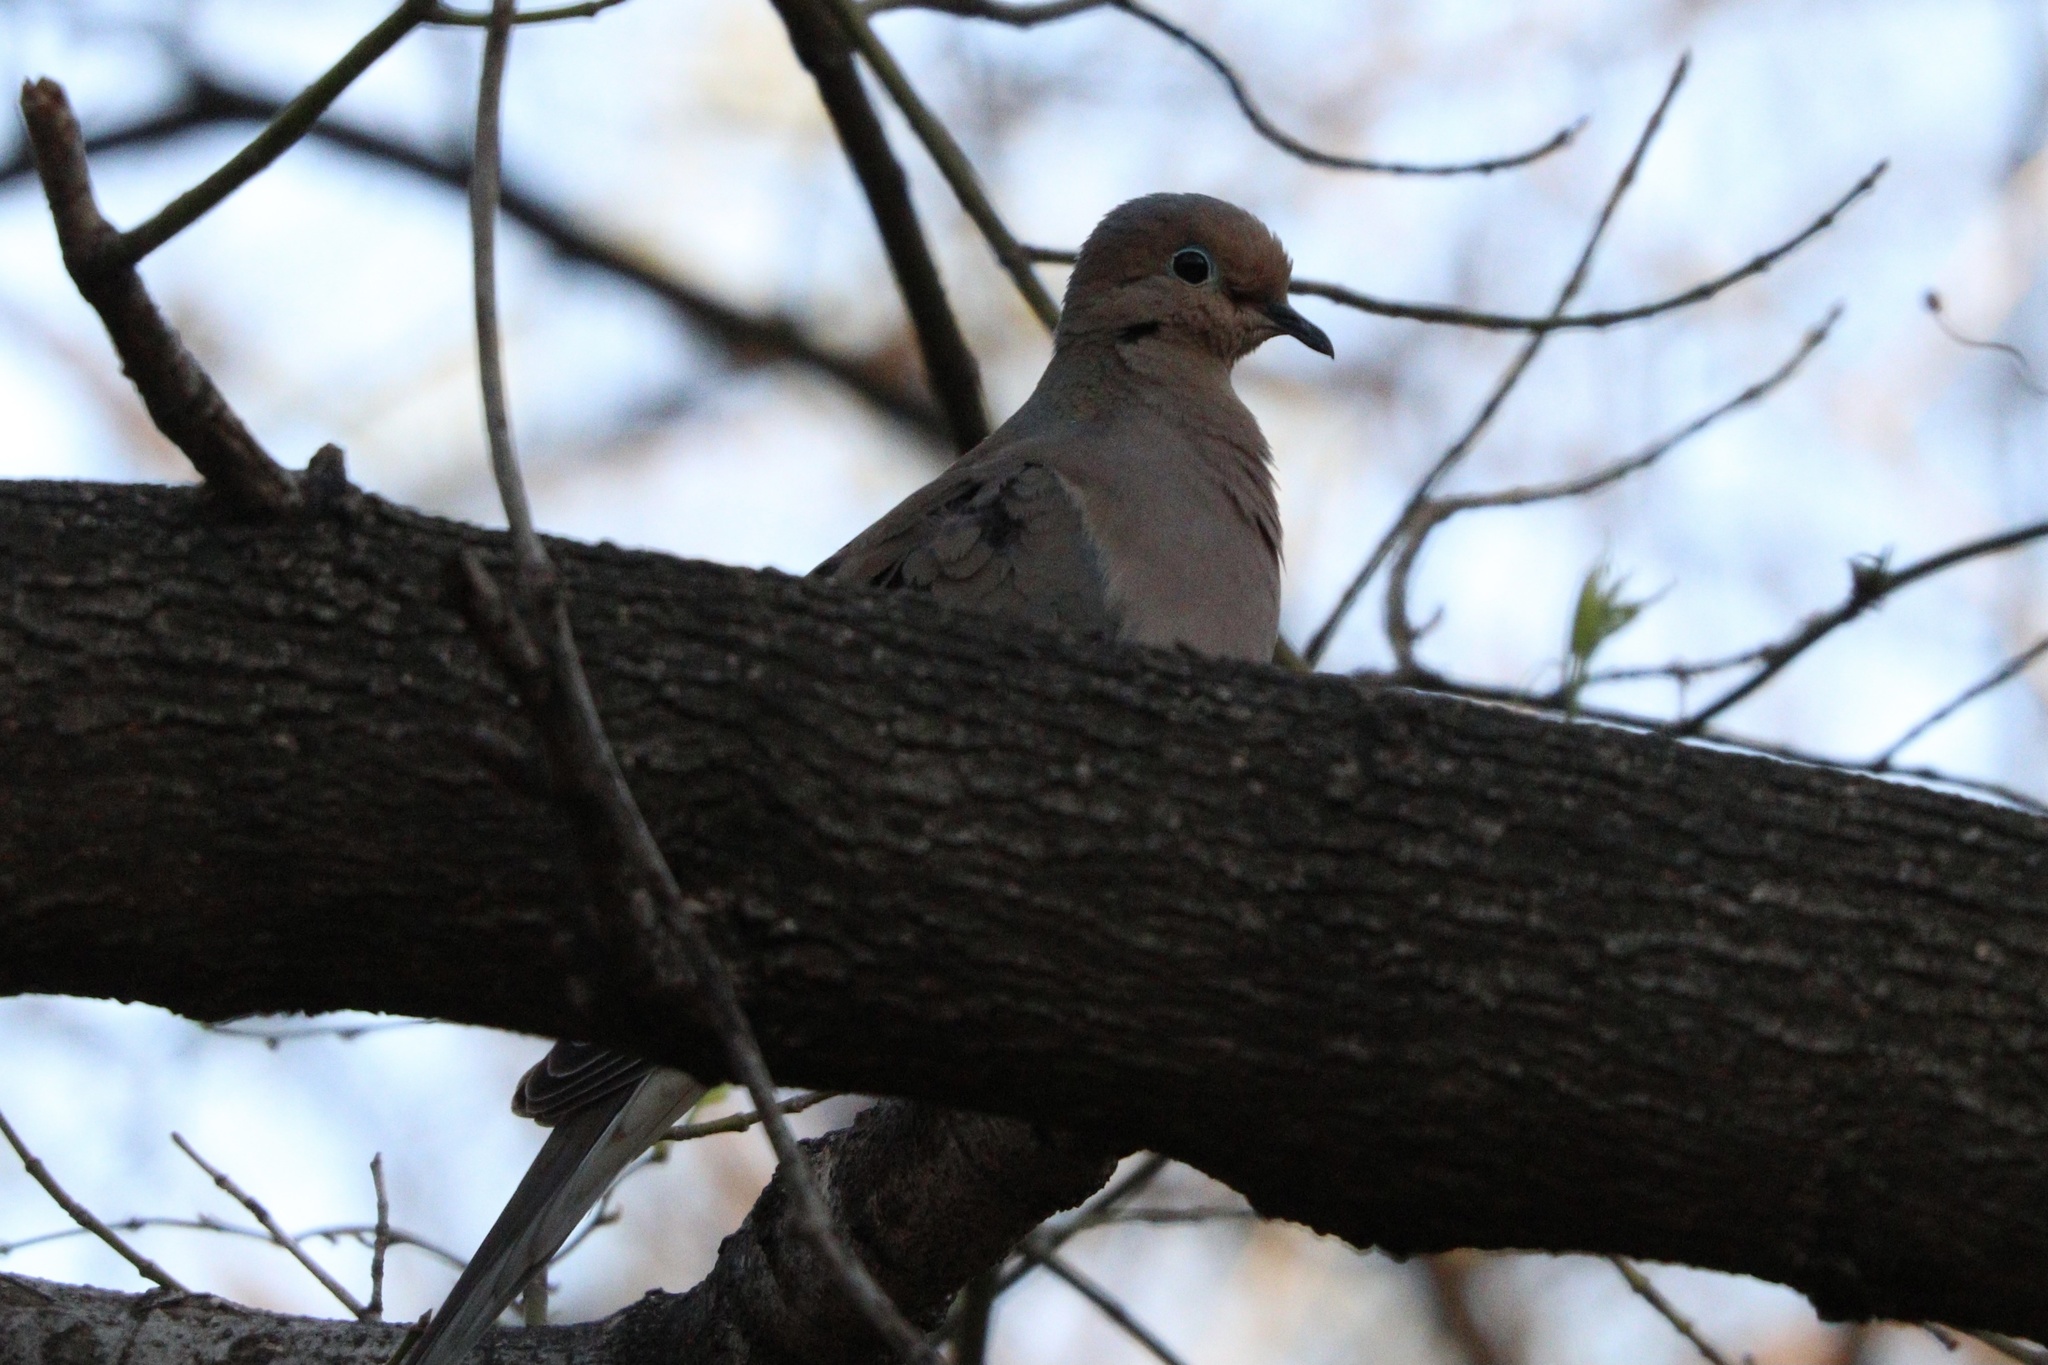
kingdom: Animalia
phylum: Chordata
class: Aves
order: Columbiformes
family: Columbidae
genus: Zenaida
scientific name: Zenaida macroura
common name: Mourning dove
